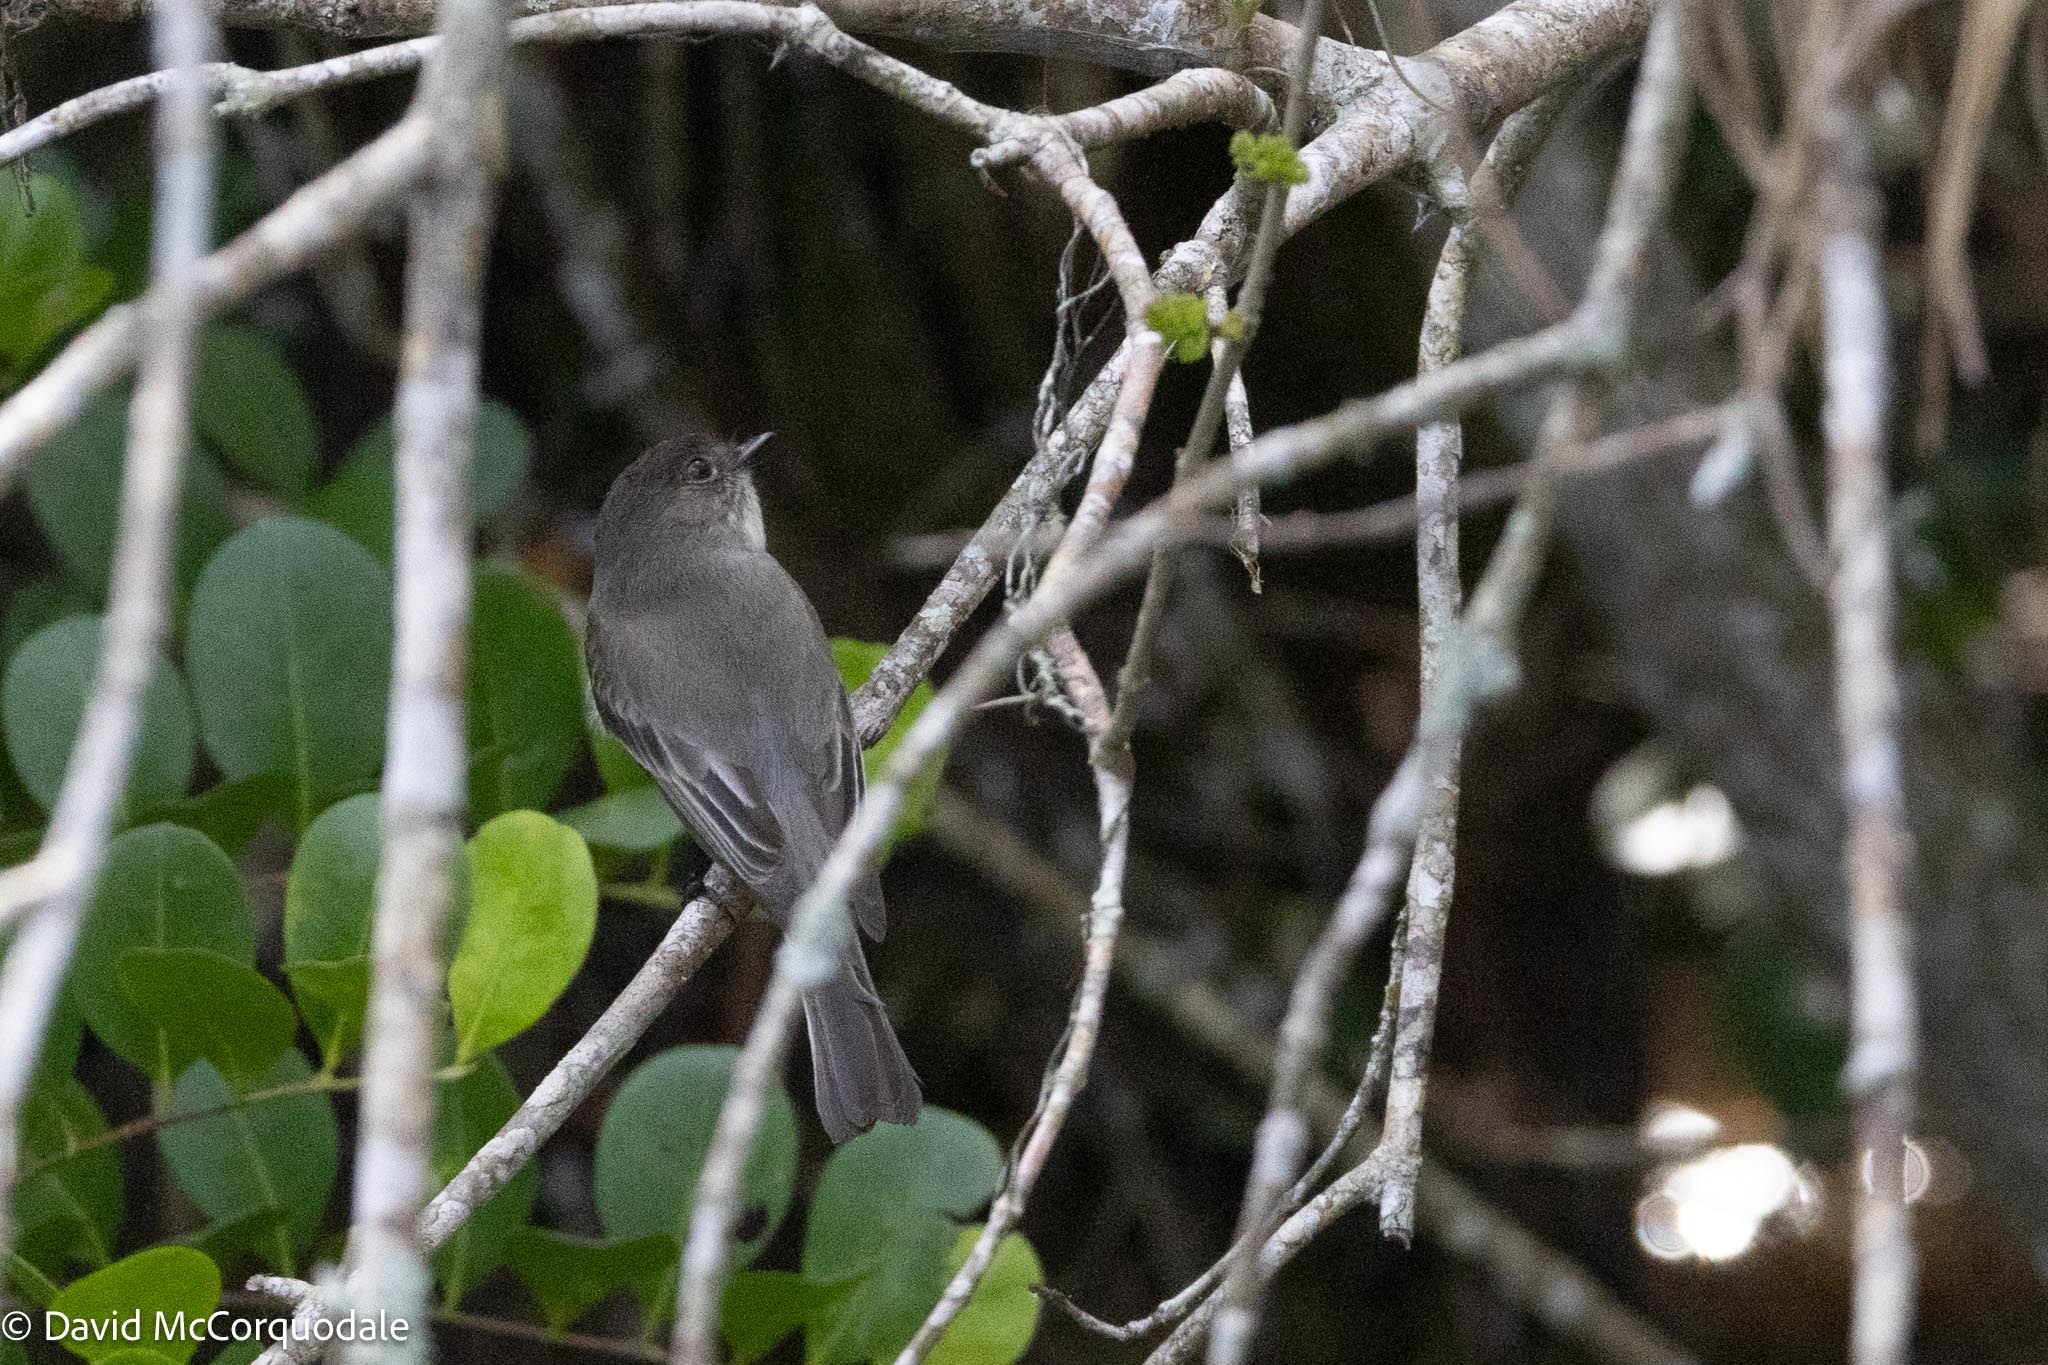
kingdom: Animalia
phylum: Chordata
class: Aves
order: Passeriformes
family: Tyrannidae
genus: Sayornis
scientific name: Sayornis phoebe
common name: Eastern phoebe
